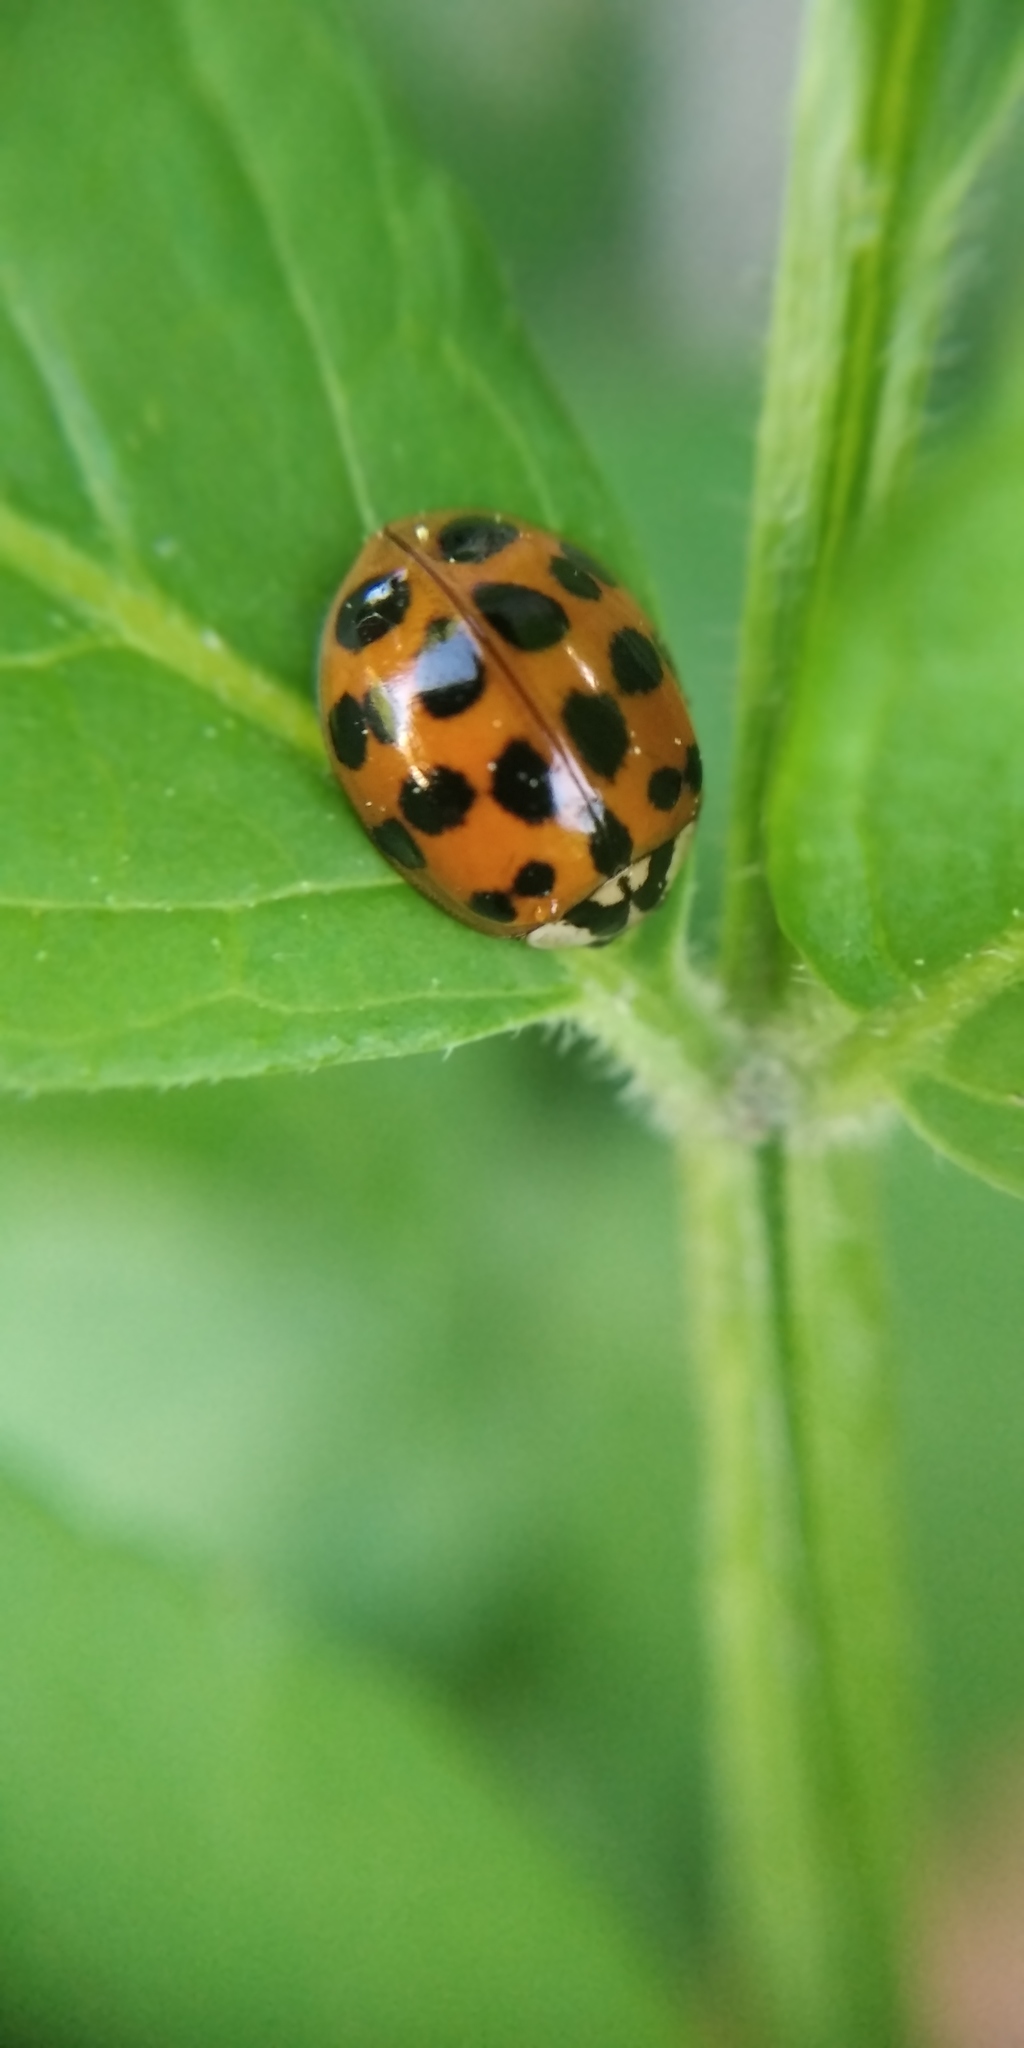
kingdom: Animalia
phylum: Arthropoda
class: Insecta
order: Coleoptera
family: Coccinellidae
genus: Harmonia
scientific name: Harmonia axyridis
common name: Harlequin ladybird
